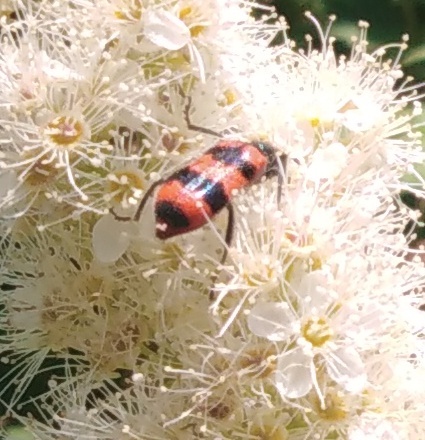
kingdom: Animalia
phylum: Arthropoda
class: Insecta
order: Coleoptera
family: Cleridae
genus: Trichodes
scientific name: Trichodes apiarius
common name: Bee-eating beetle
